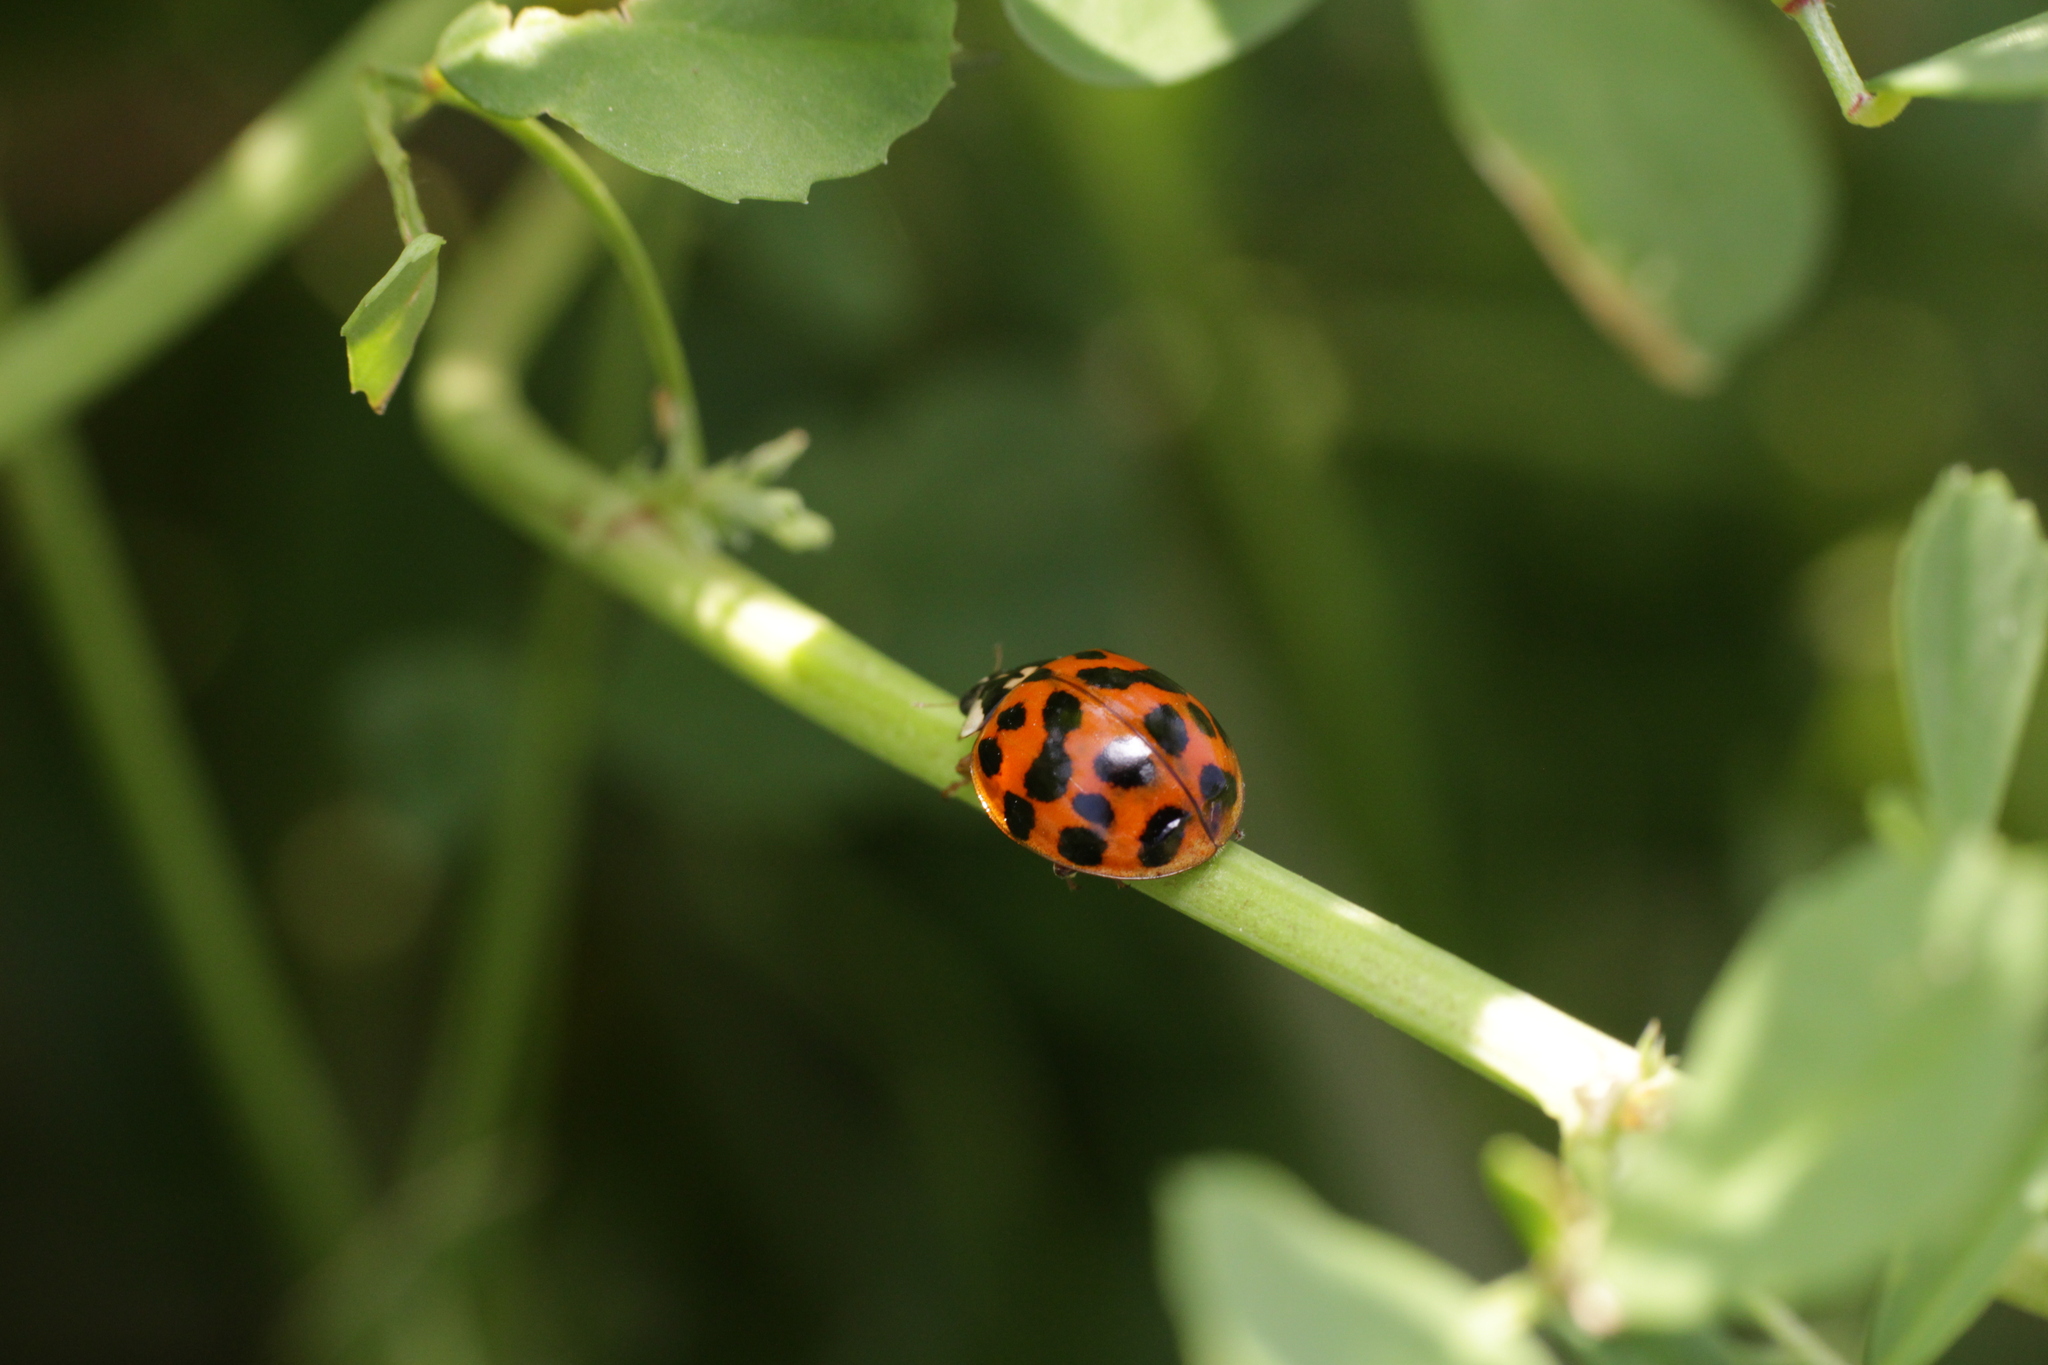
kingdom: Animalia
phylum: Arthropoda
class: Insecta
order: Coleoptera
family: Coccinellidae
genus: Harmonia
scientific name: Harmonia axyridis
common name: Harlequin ladybird
